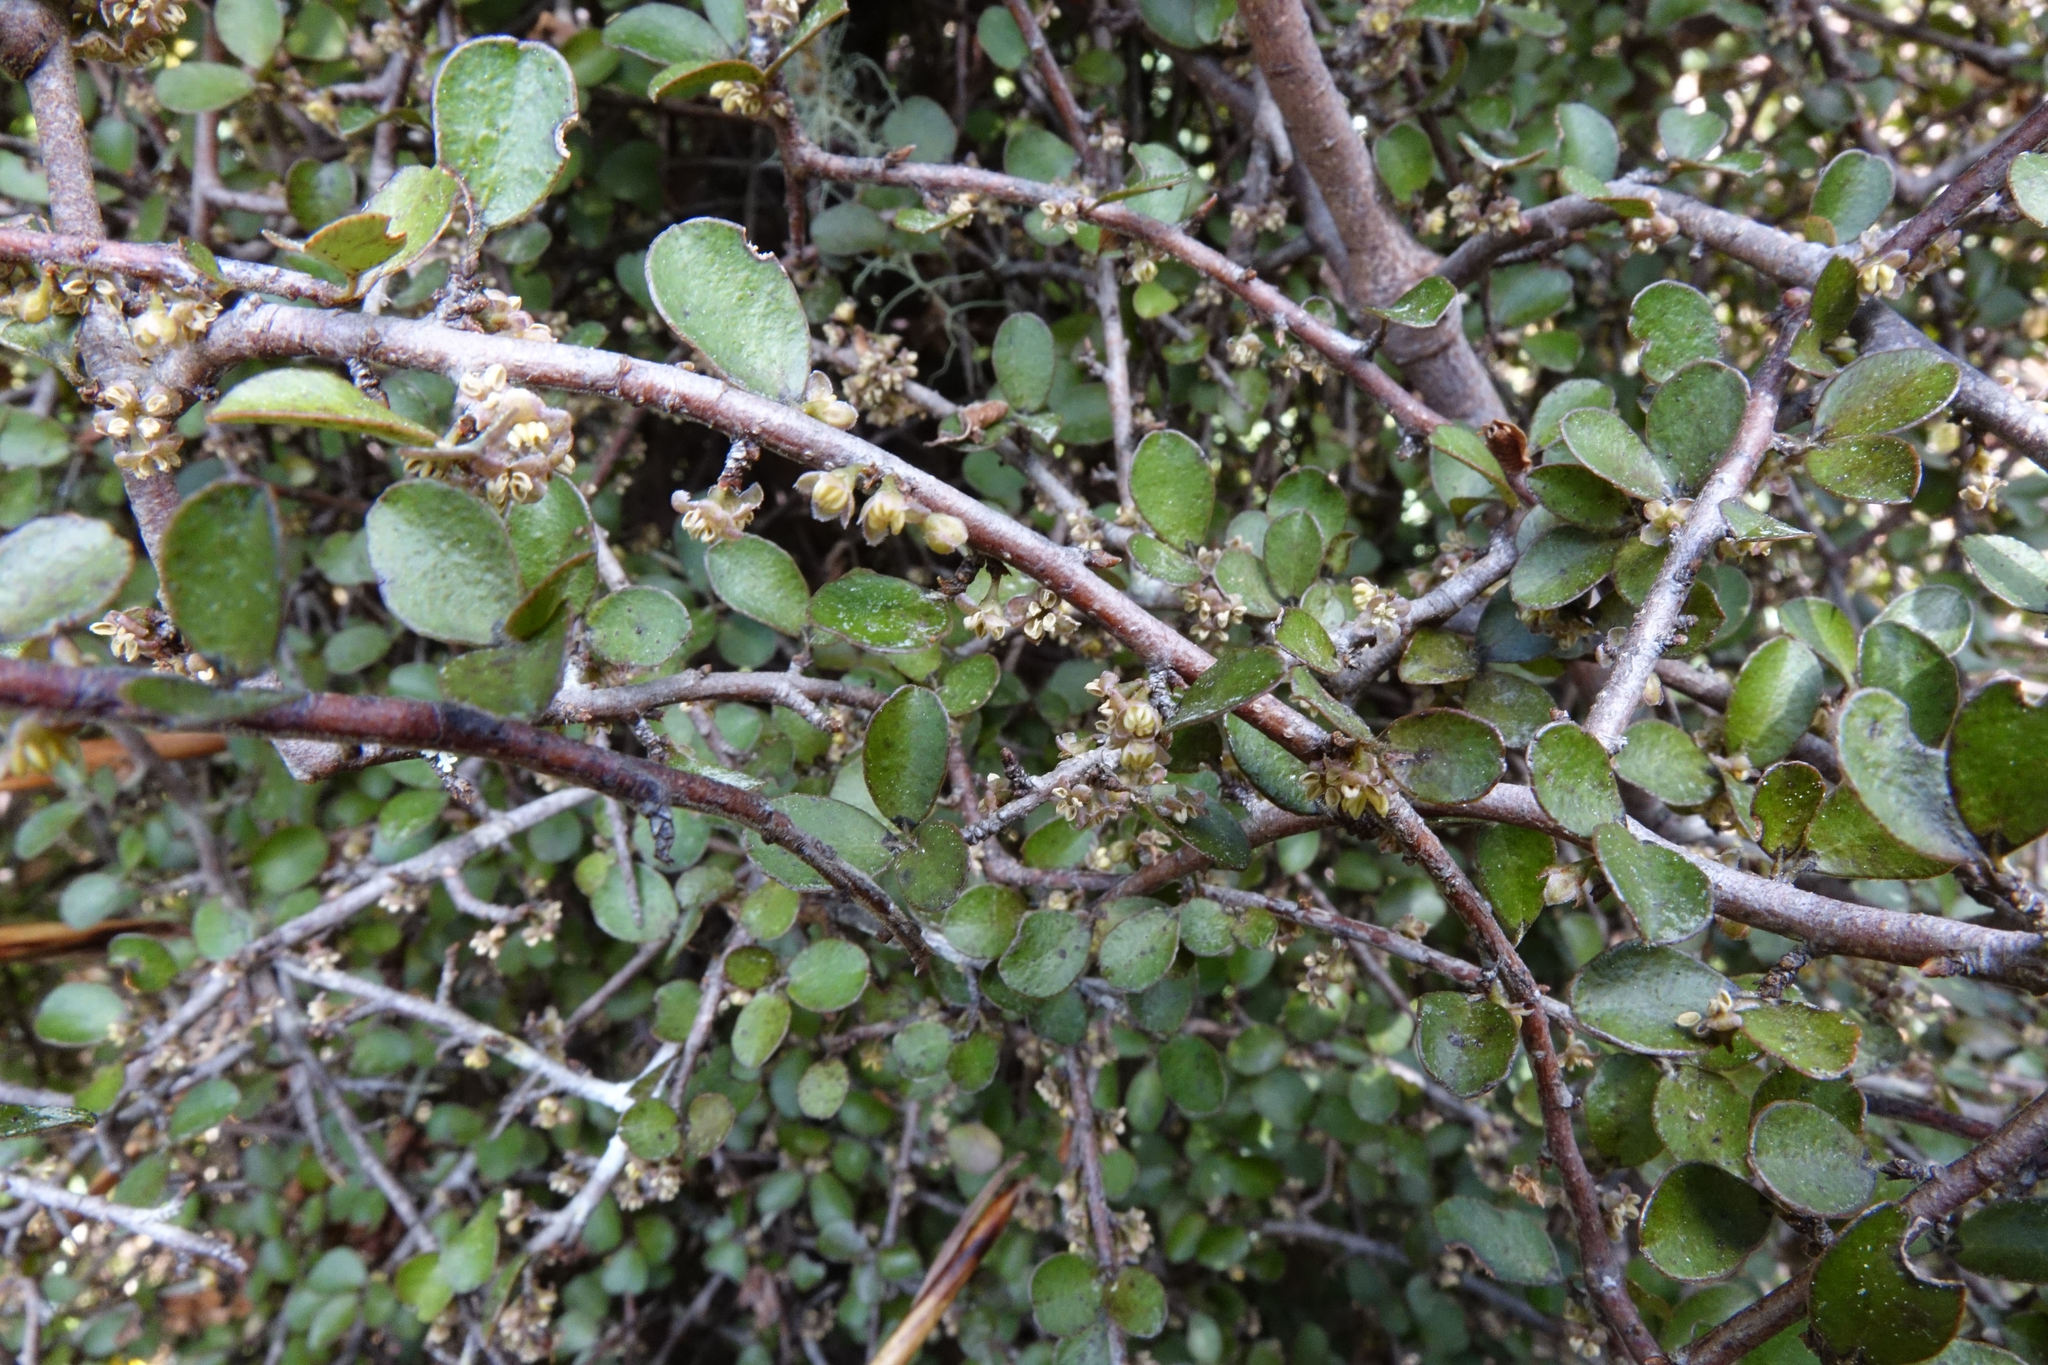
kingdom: Plantae
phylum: Tracheophyta
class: Magnoliopsida
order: Ericales
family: Primulaceae
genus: Myrsine
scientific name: Myrsine divaricata
